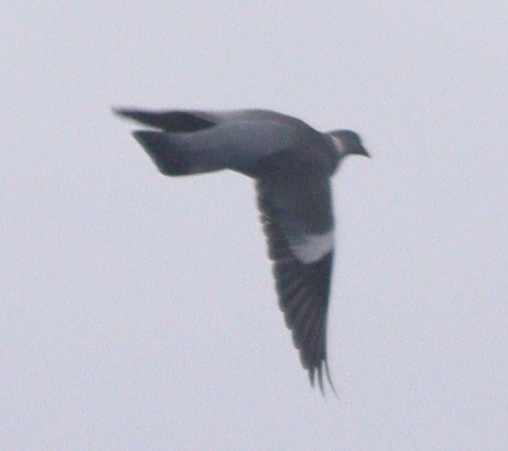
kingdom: Animalia
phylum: Chordata
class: Aves
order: Columbiformes
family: Columbidae
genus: Columba
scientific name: Columba palumbus
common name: Common wood pigeon
